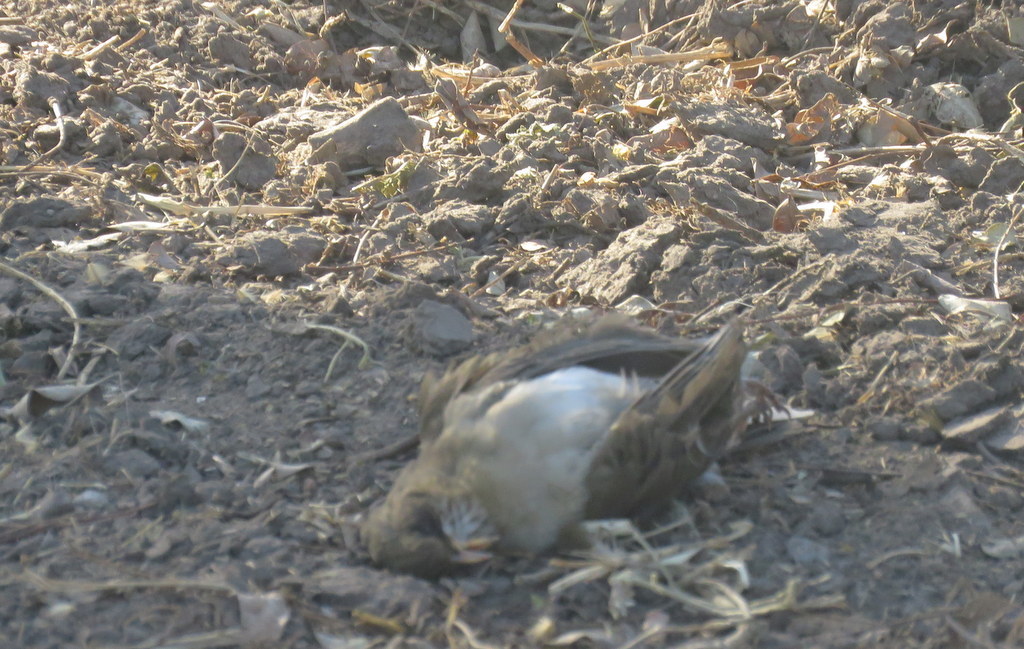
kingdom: Animalia
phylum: Chordata
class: Aves
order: Passeriformes
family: Turdidae
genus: Turdus
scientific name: Turdus amaurochalinus
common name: Creamy-bellied thrush
